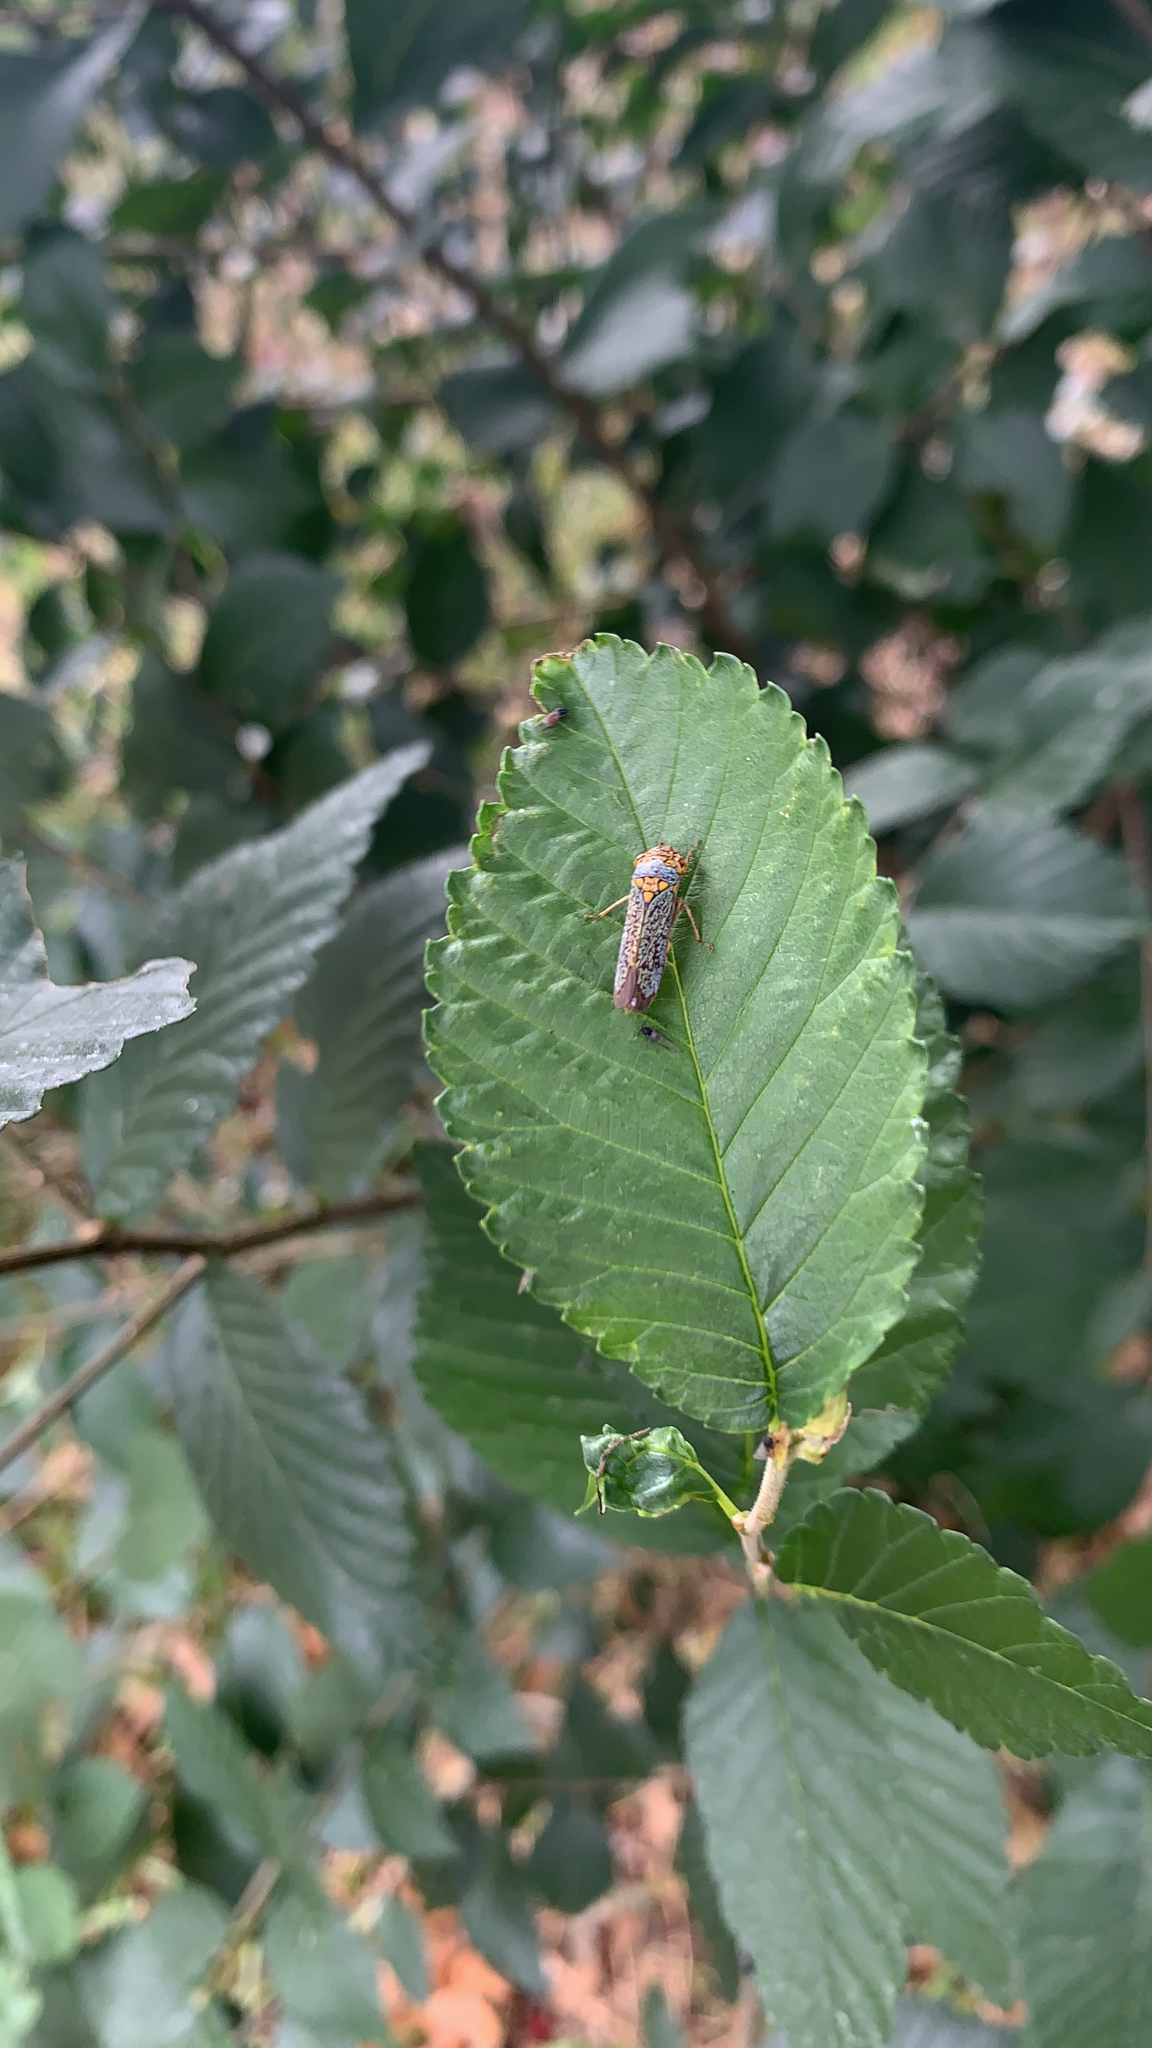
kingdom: Animalia
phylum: Arthropoda
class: Insecta
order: Hemiptera
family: Cicadellidae
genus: Oncometopia
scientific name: Oncometopia orbona
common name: Broad-headed sharpshooter
